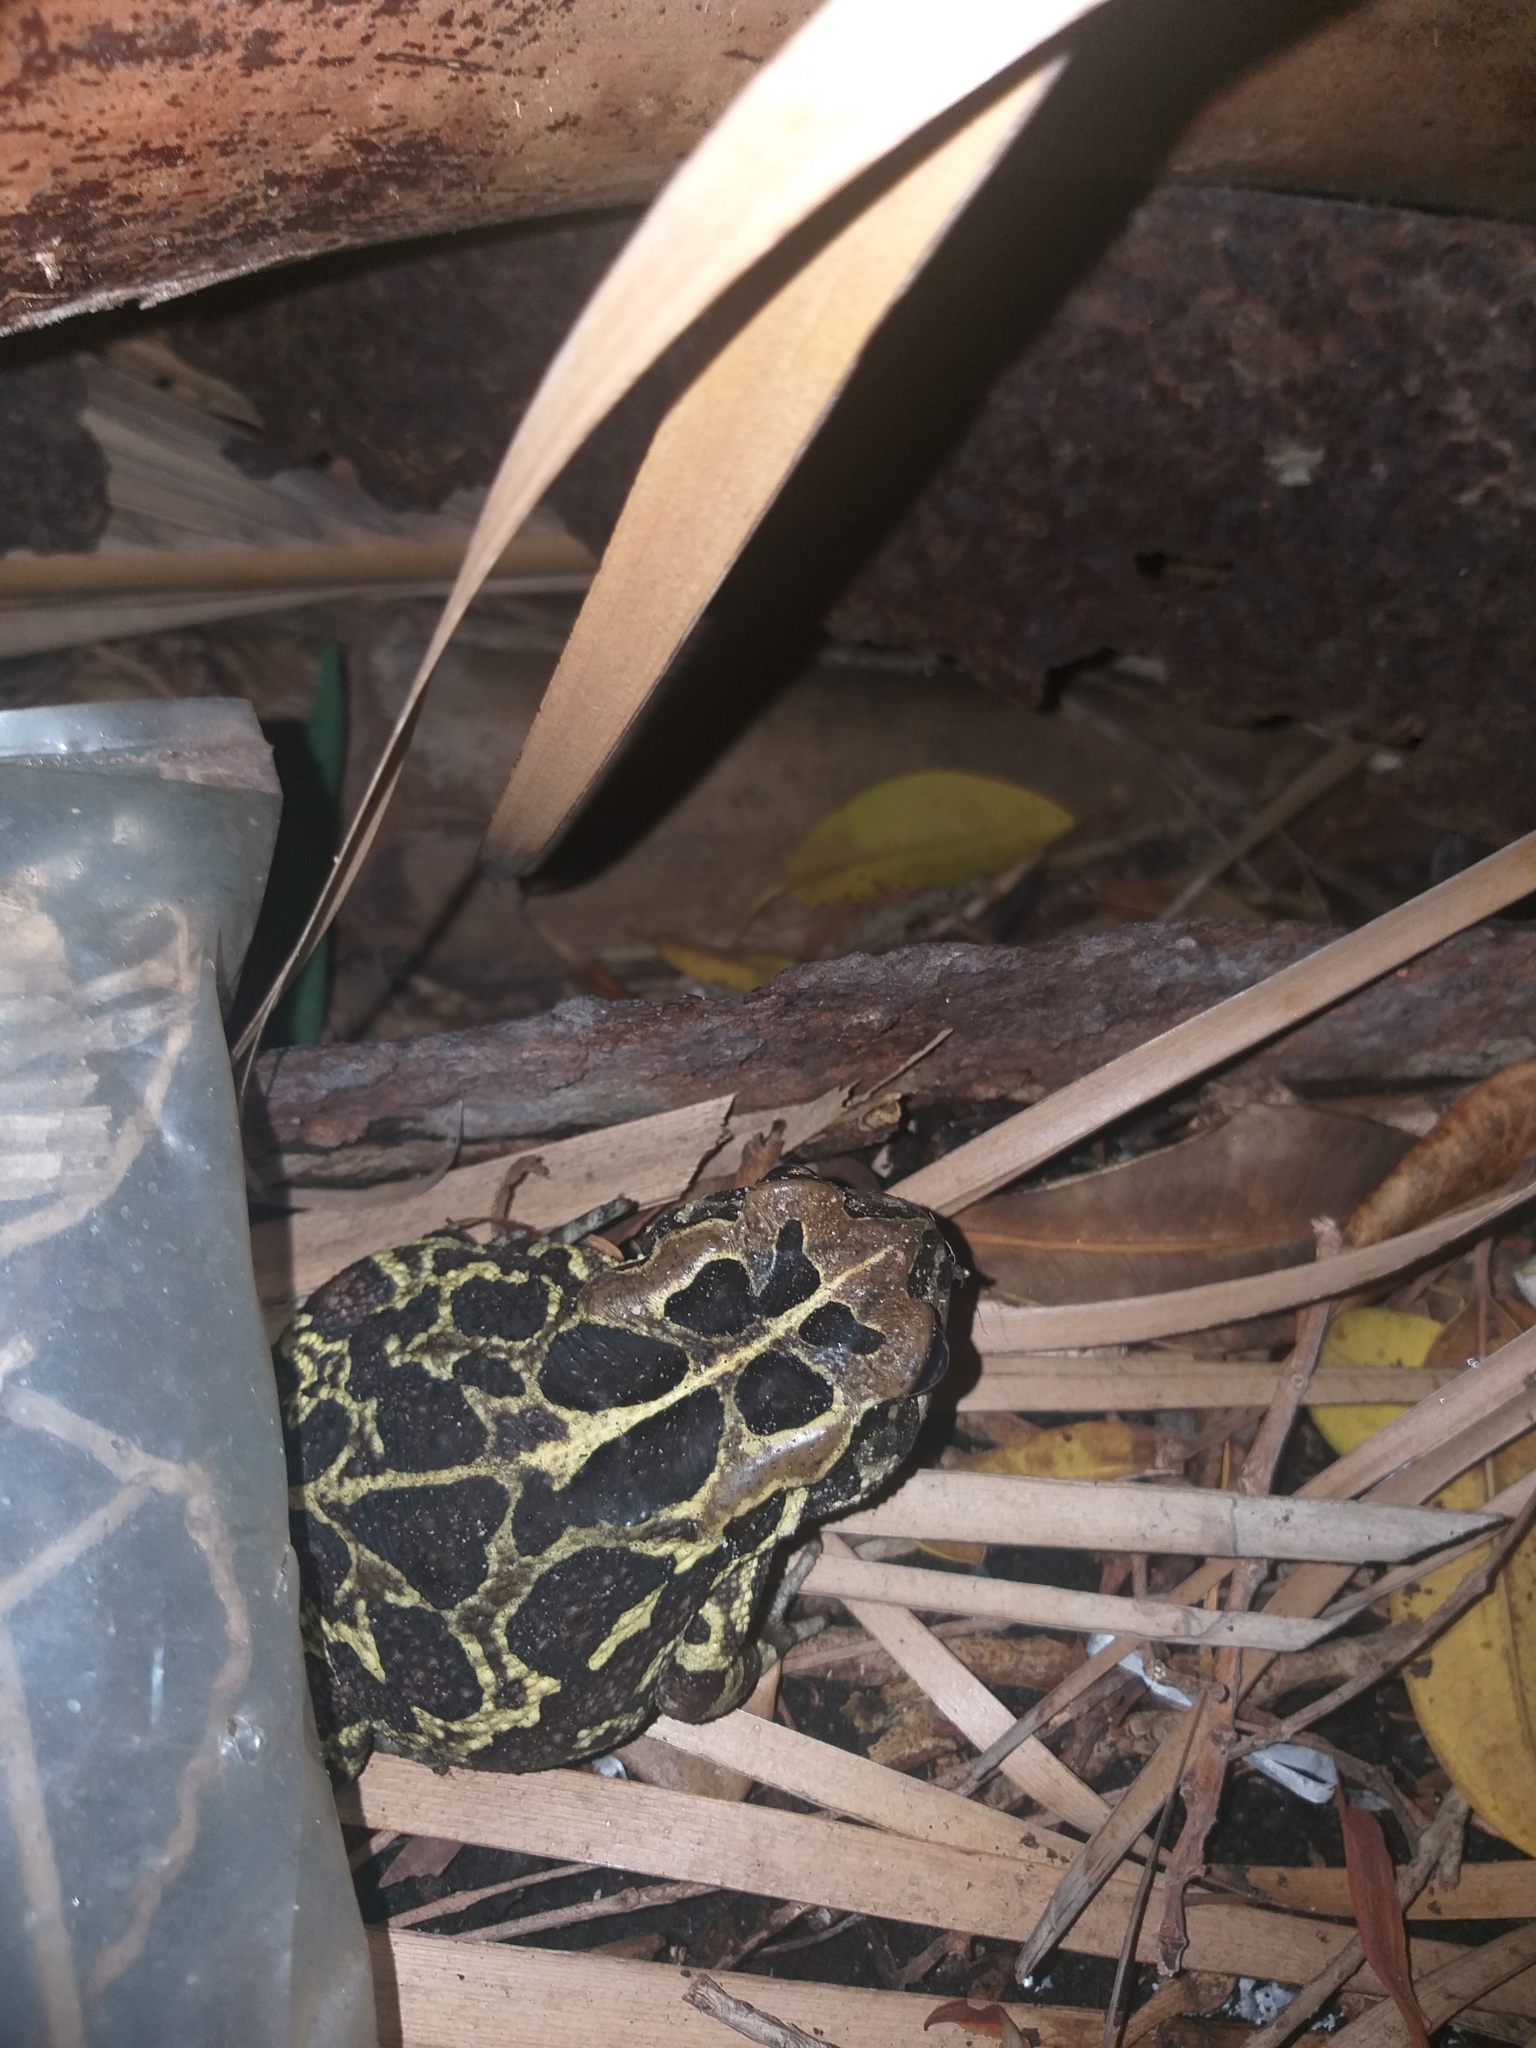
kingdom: Animalia
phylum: Chordata
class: Amphibia
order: Anura
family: Bufonidae
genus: Sclerophrys
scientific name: Sclerophrys pantherina
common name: Panther toad
